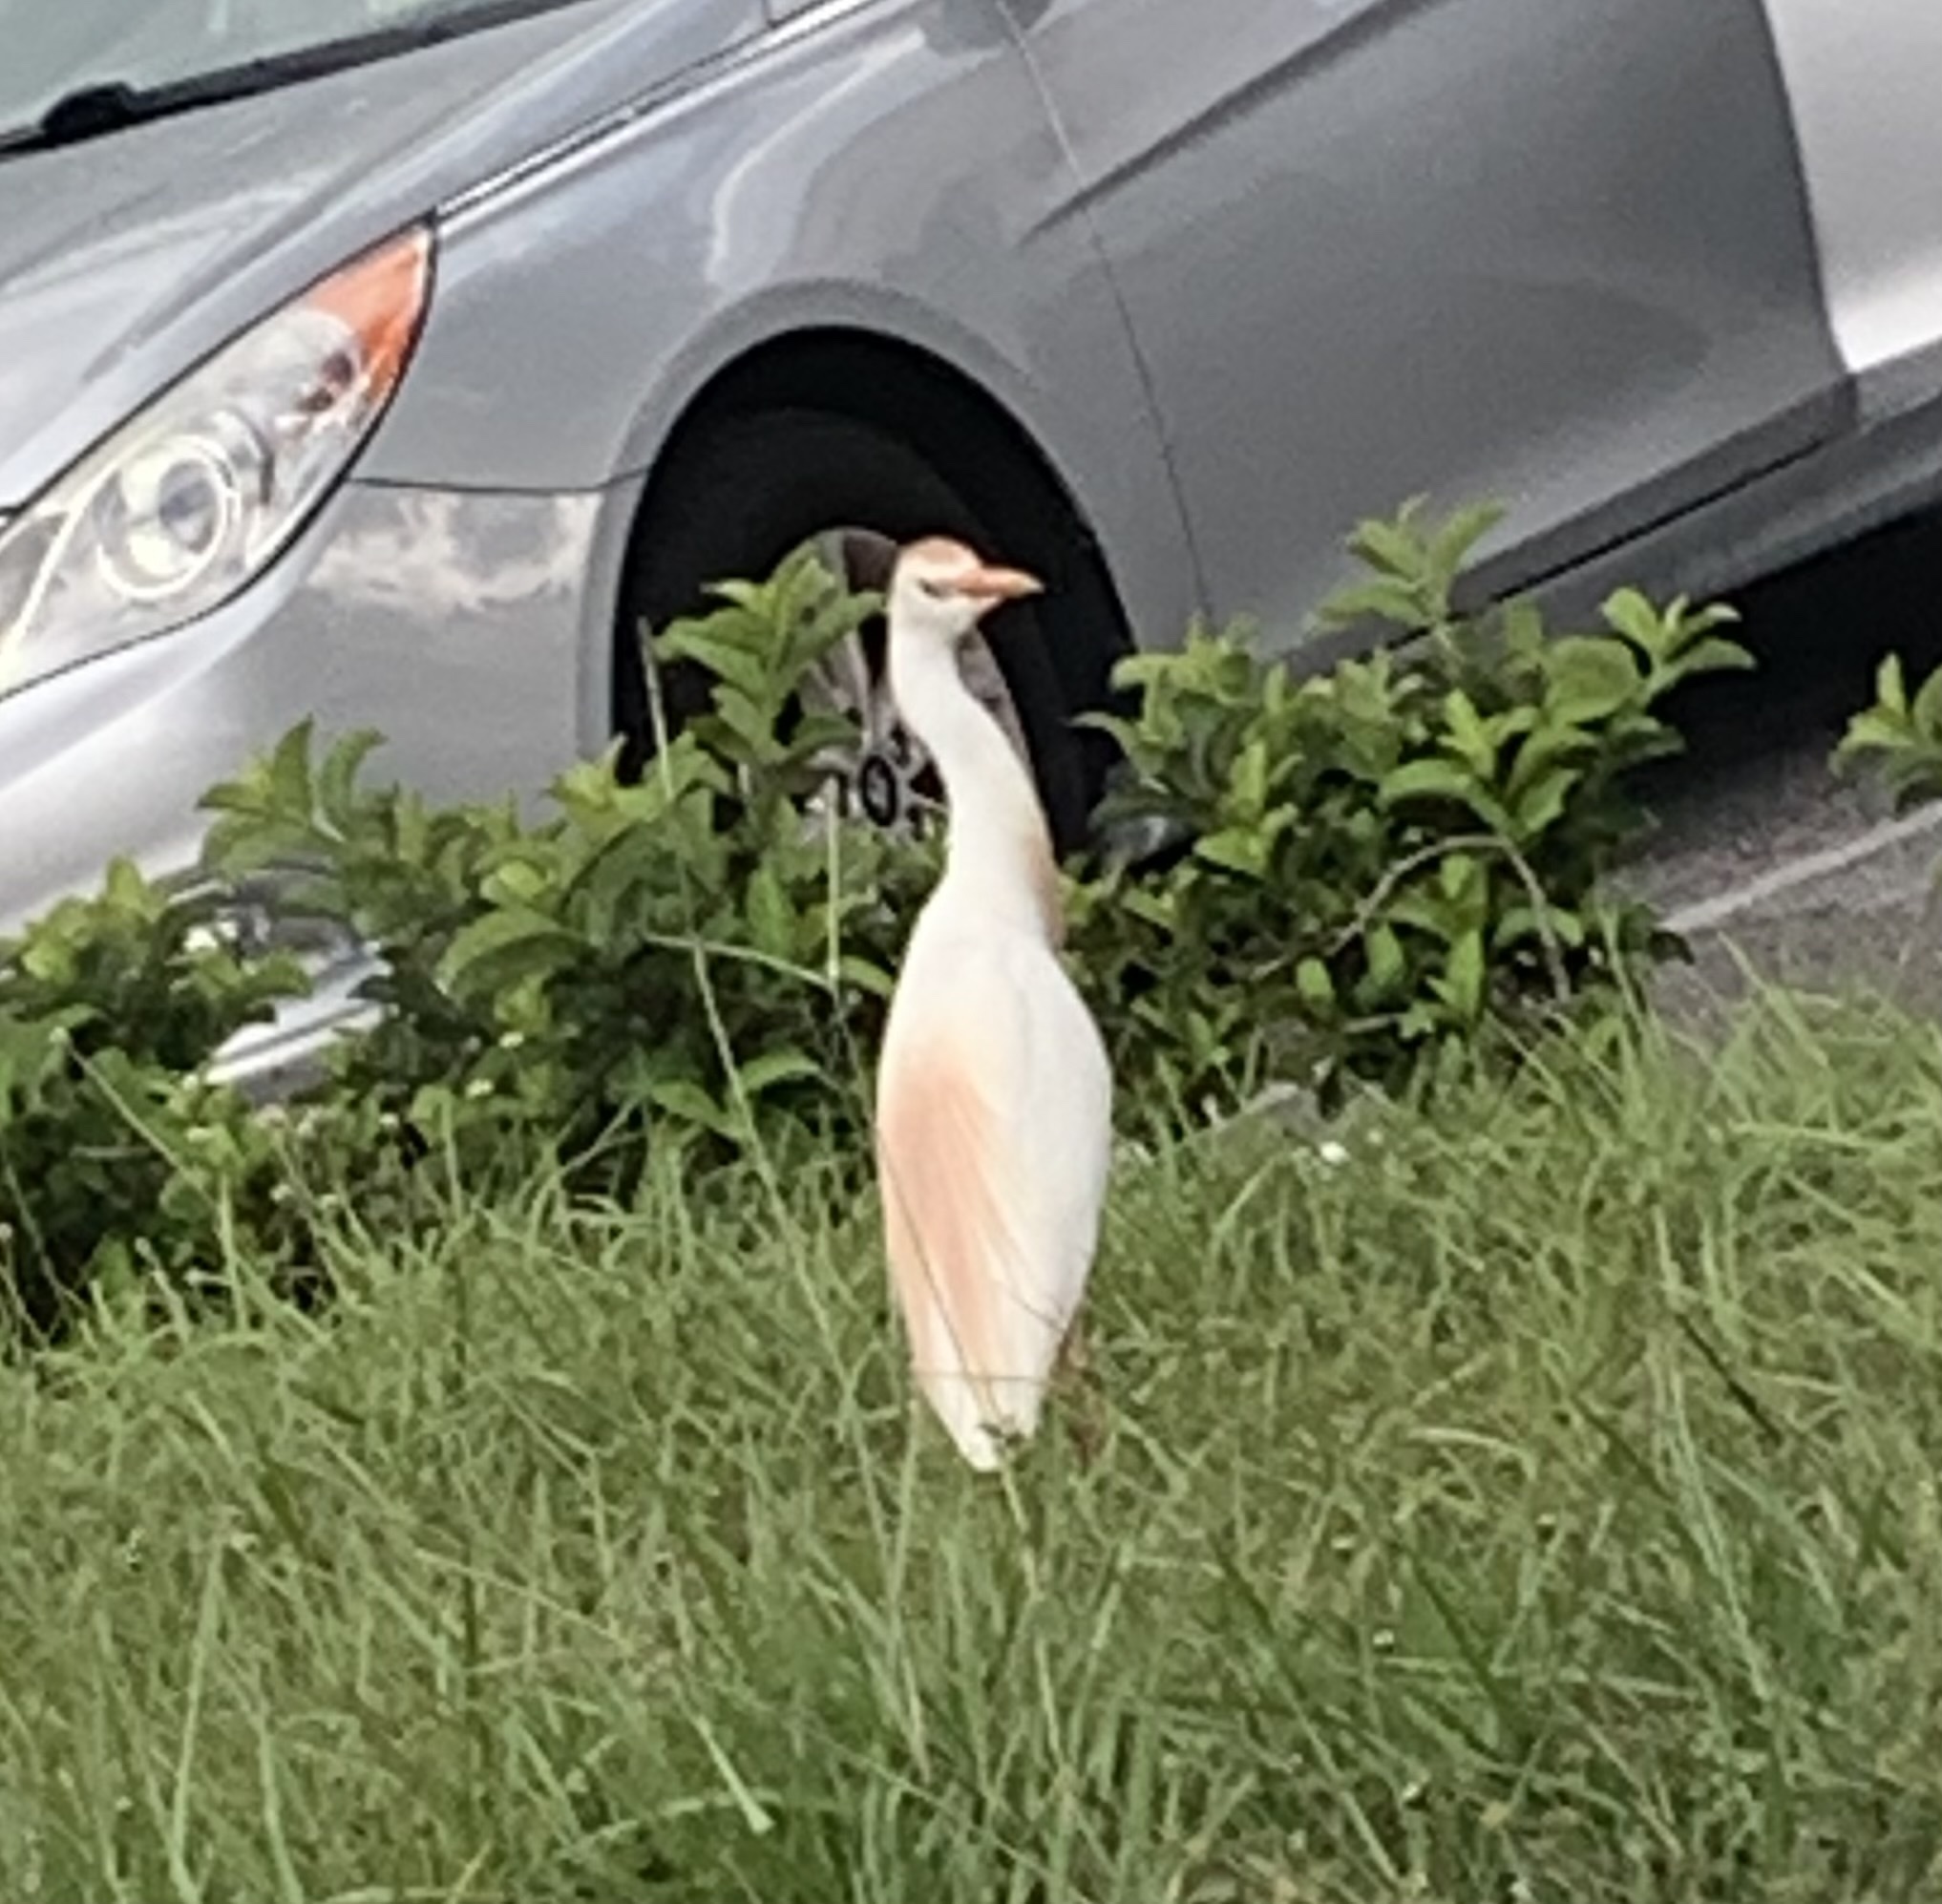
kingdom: Animalia
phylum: Chordata
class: Aves
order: Pelecaniformes
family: Ardeidae
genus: Bubulcus
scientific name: Bubulcus ibis
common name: Cattle egret
